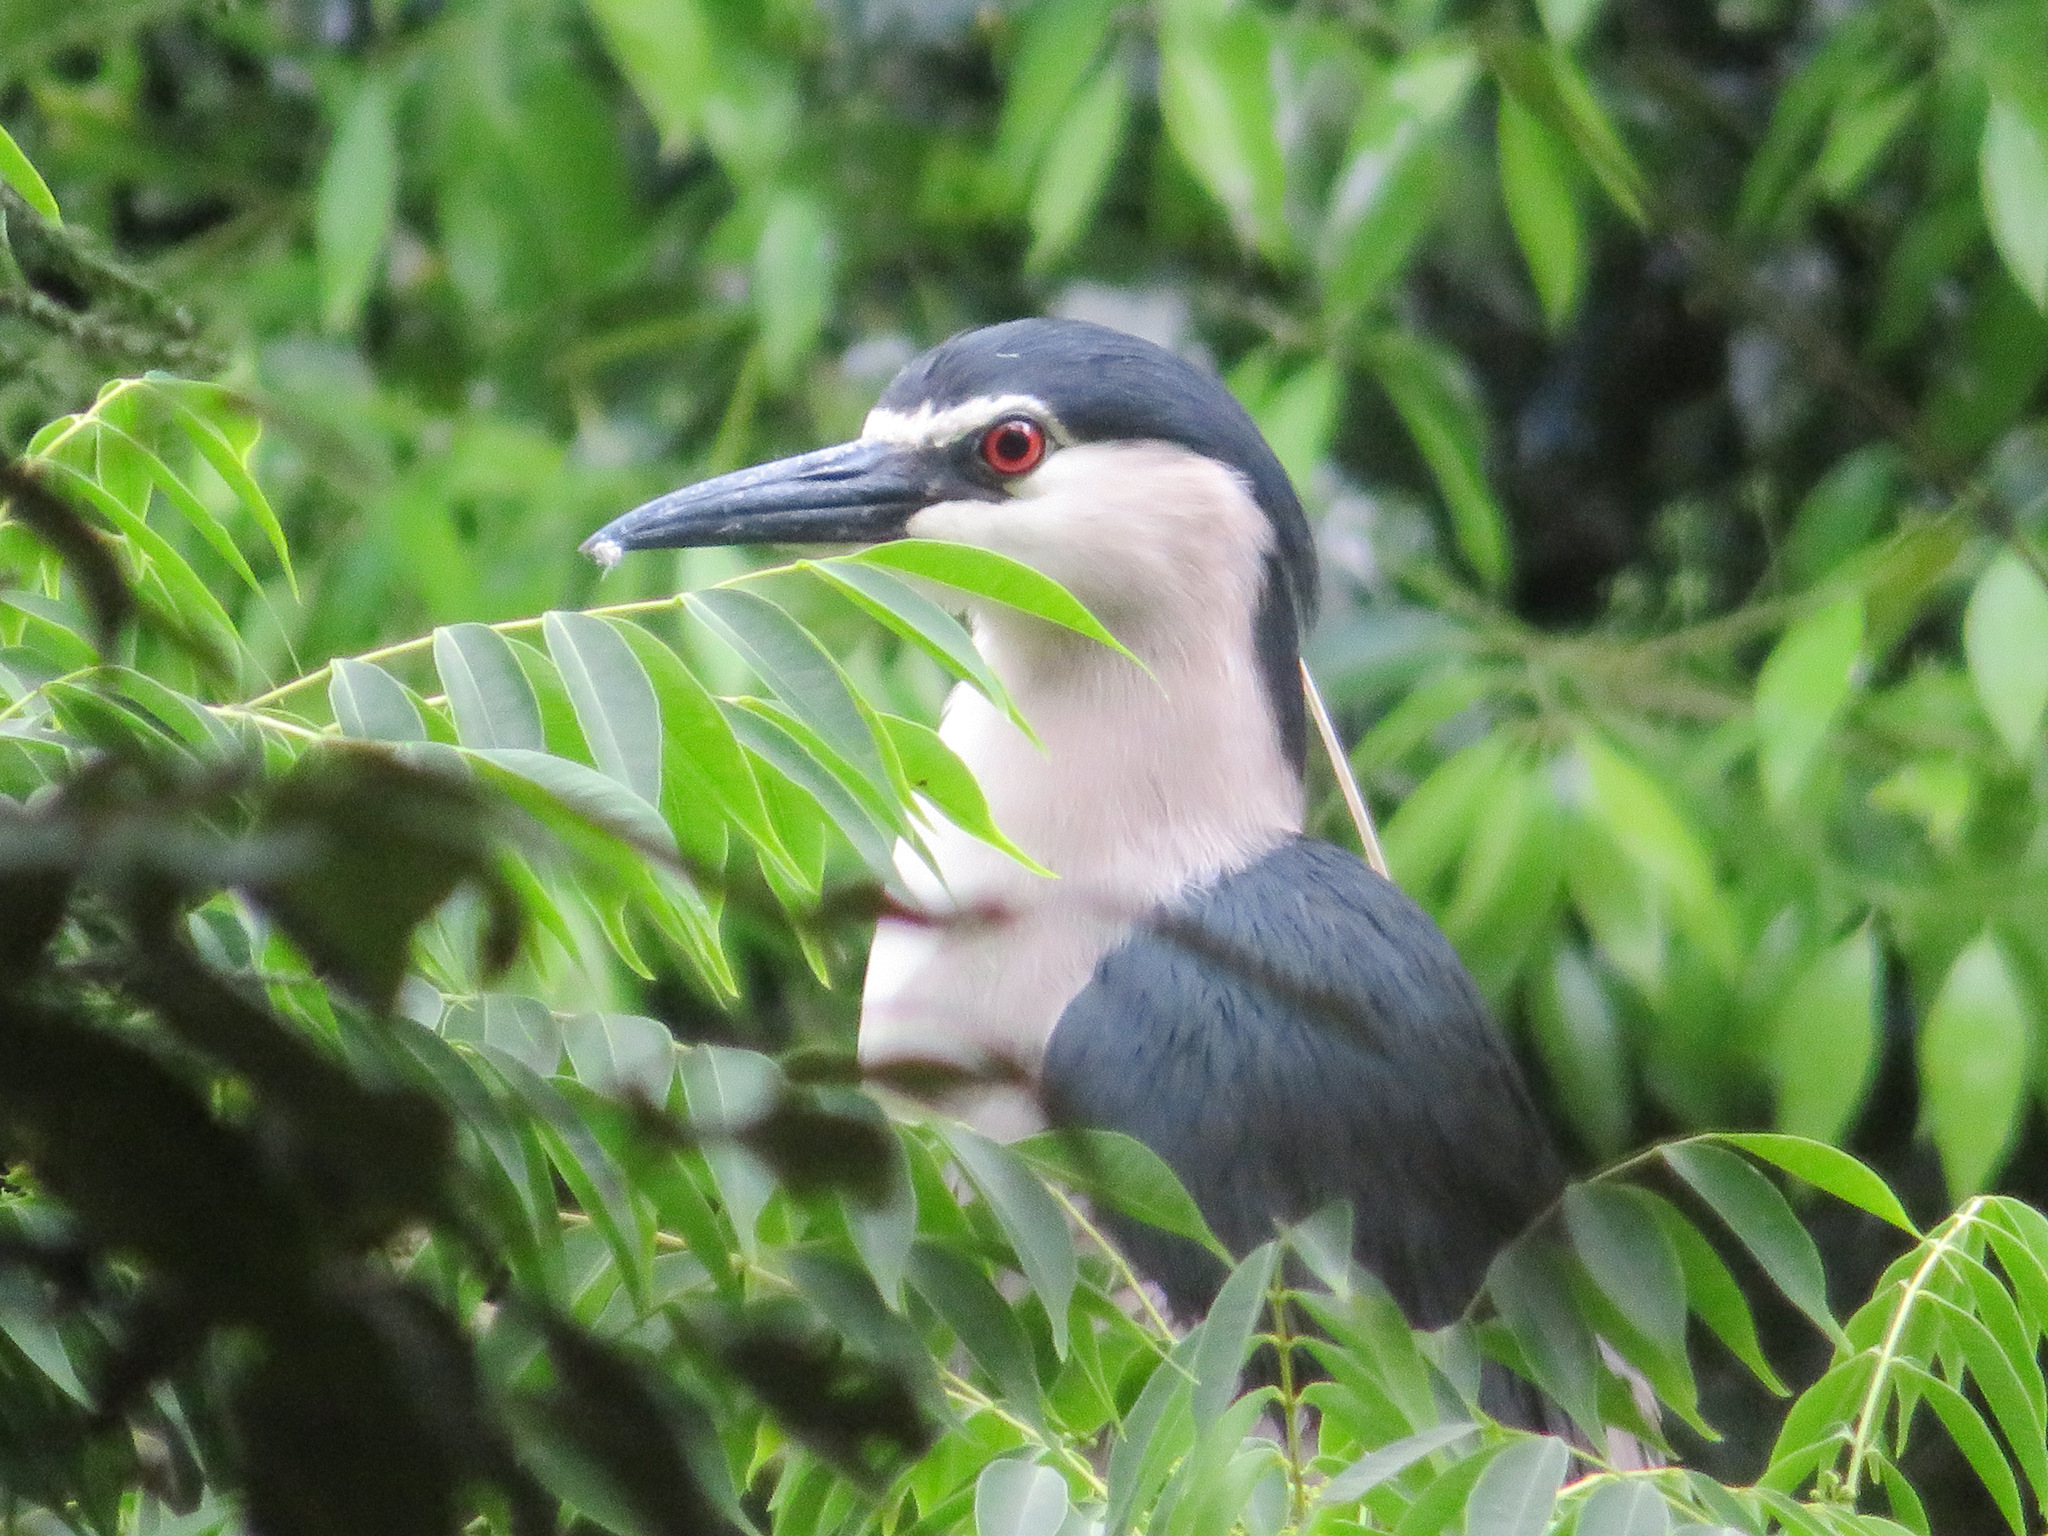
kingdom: Animalia
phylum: Chordata
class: Aves
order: Pelecaniformes
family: Ardeidae
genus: Nycticorax
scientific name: Nycticorax nycticorax
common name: Black-crowned night heron
